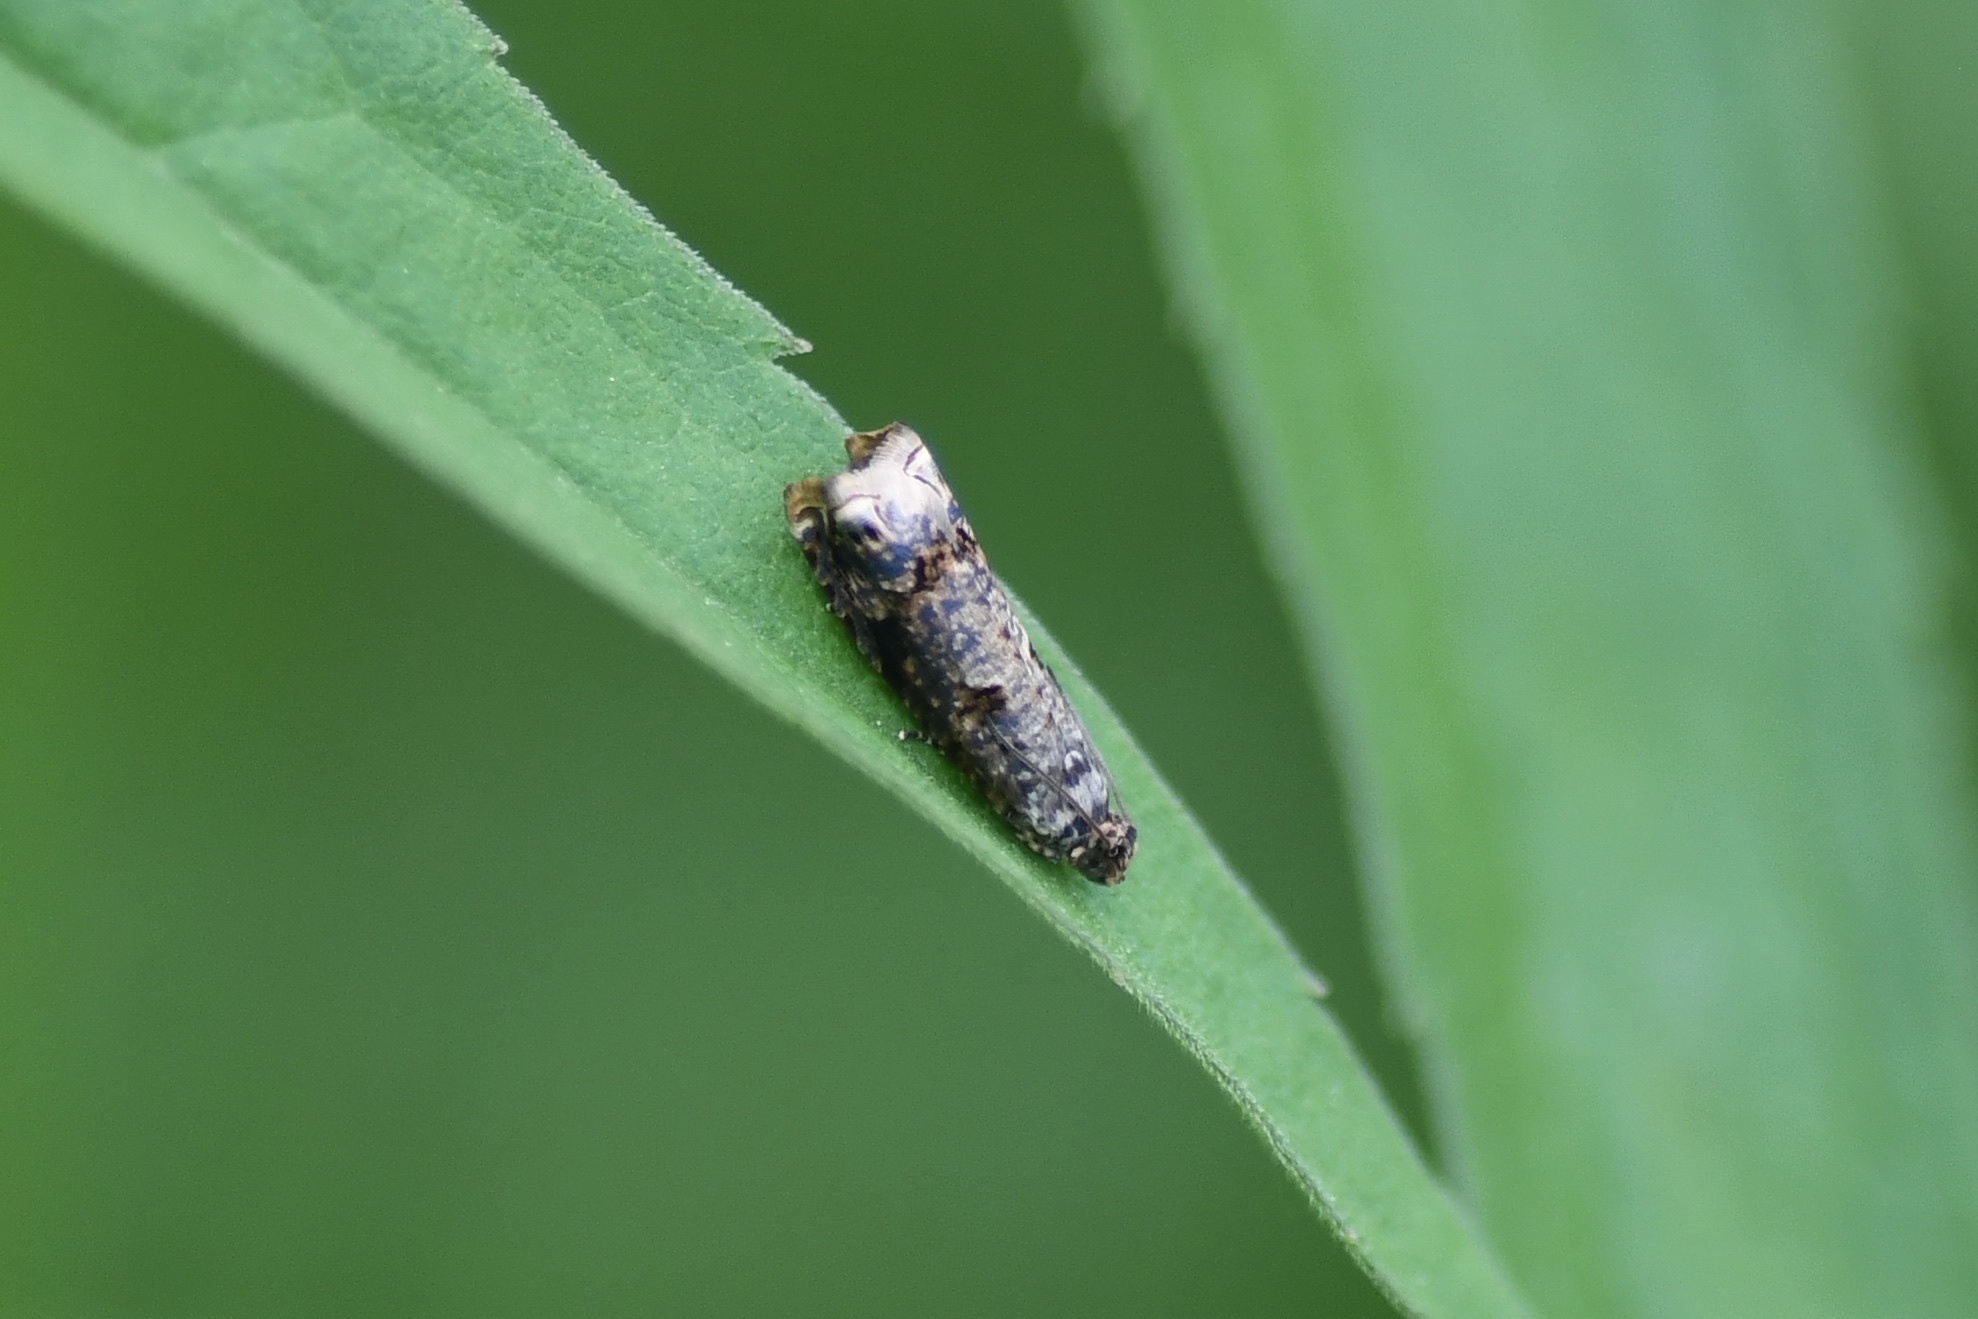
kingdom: Animalia
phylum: Arthropoda
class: Insecta
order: Lepidoptera
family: Tortricidae
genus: Episimus
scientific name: Episimus argutana
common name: Sumac leaftier moth
